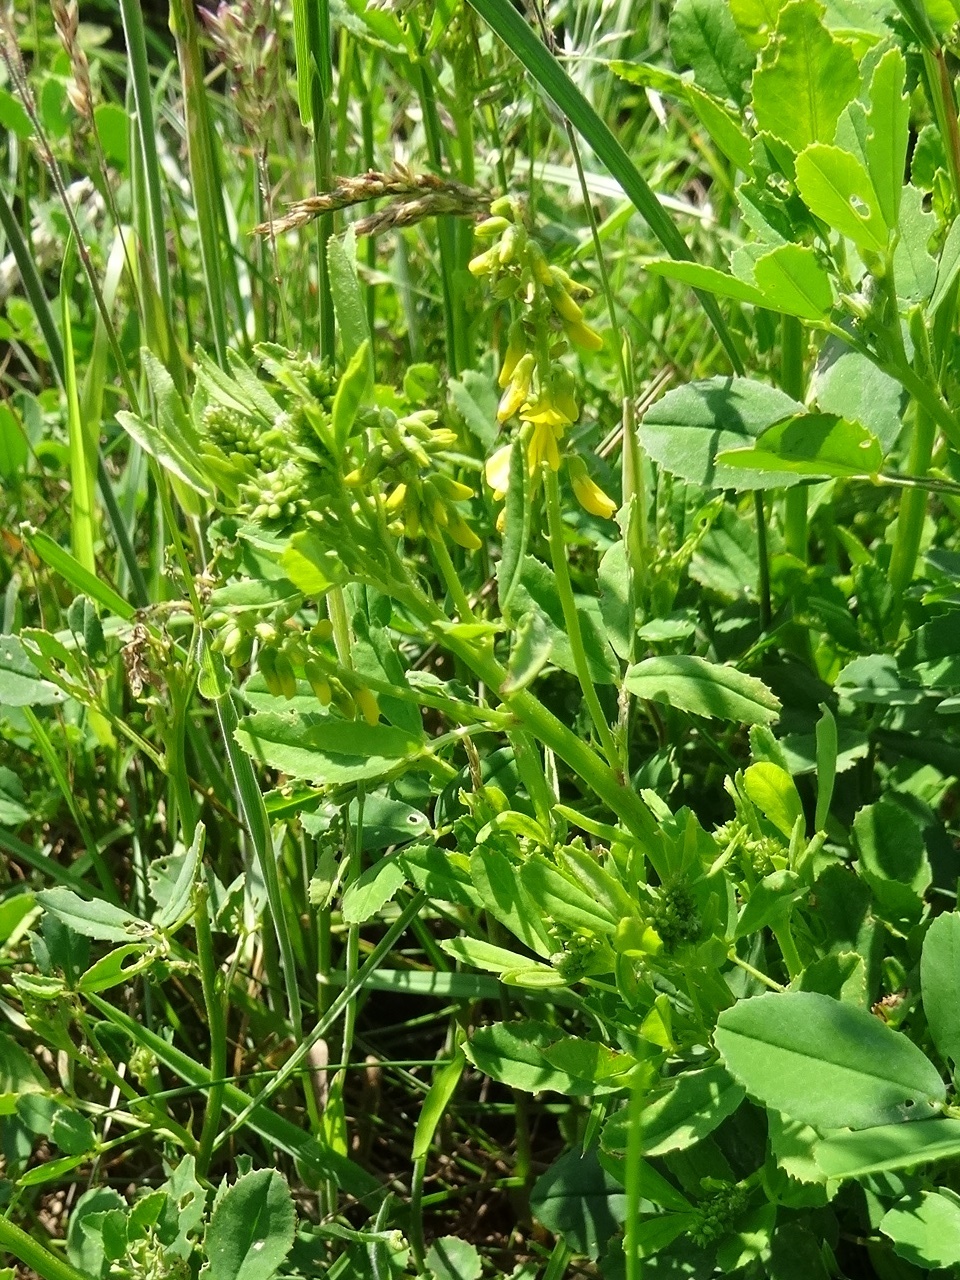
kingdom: Plantae
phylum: Tracheophyta
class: Magnoliopsida
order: Fabales
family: Fabaceae
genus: Melilotus
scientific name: Melilotus officinalis
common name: Sweetclover
